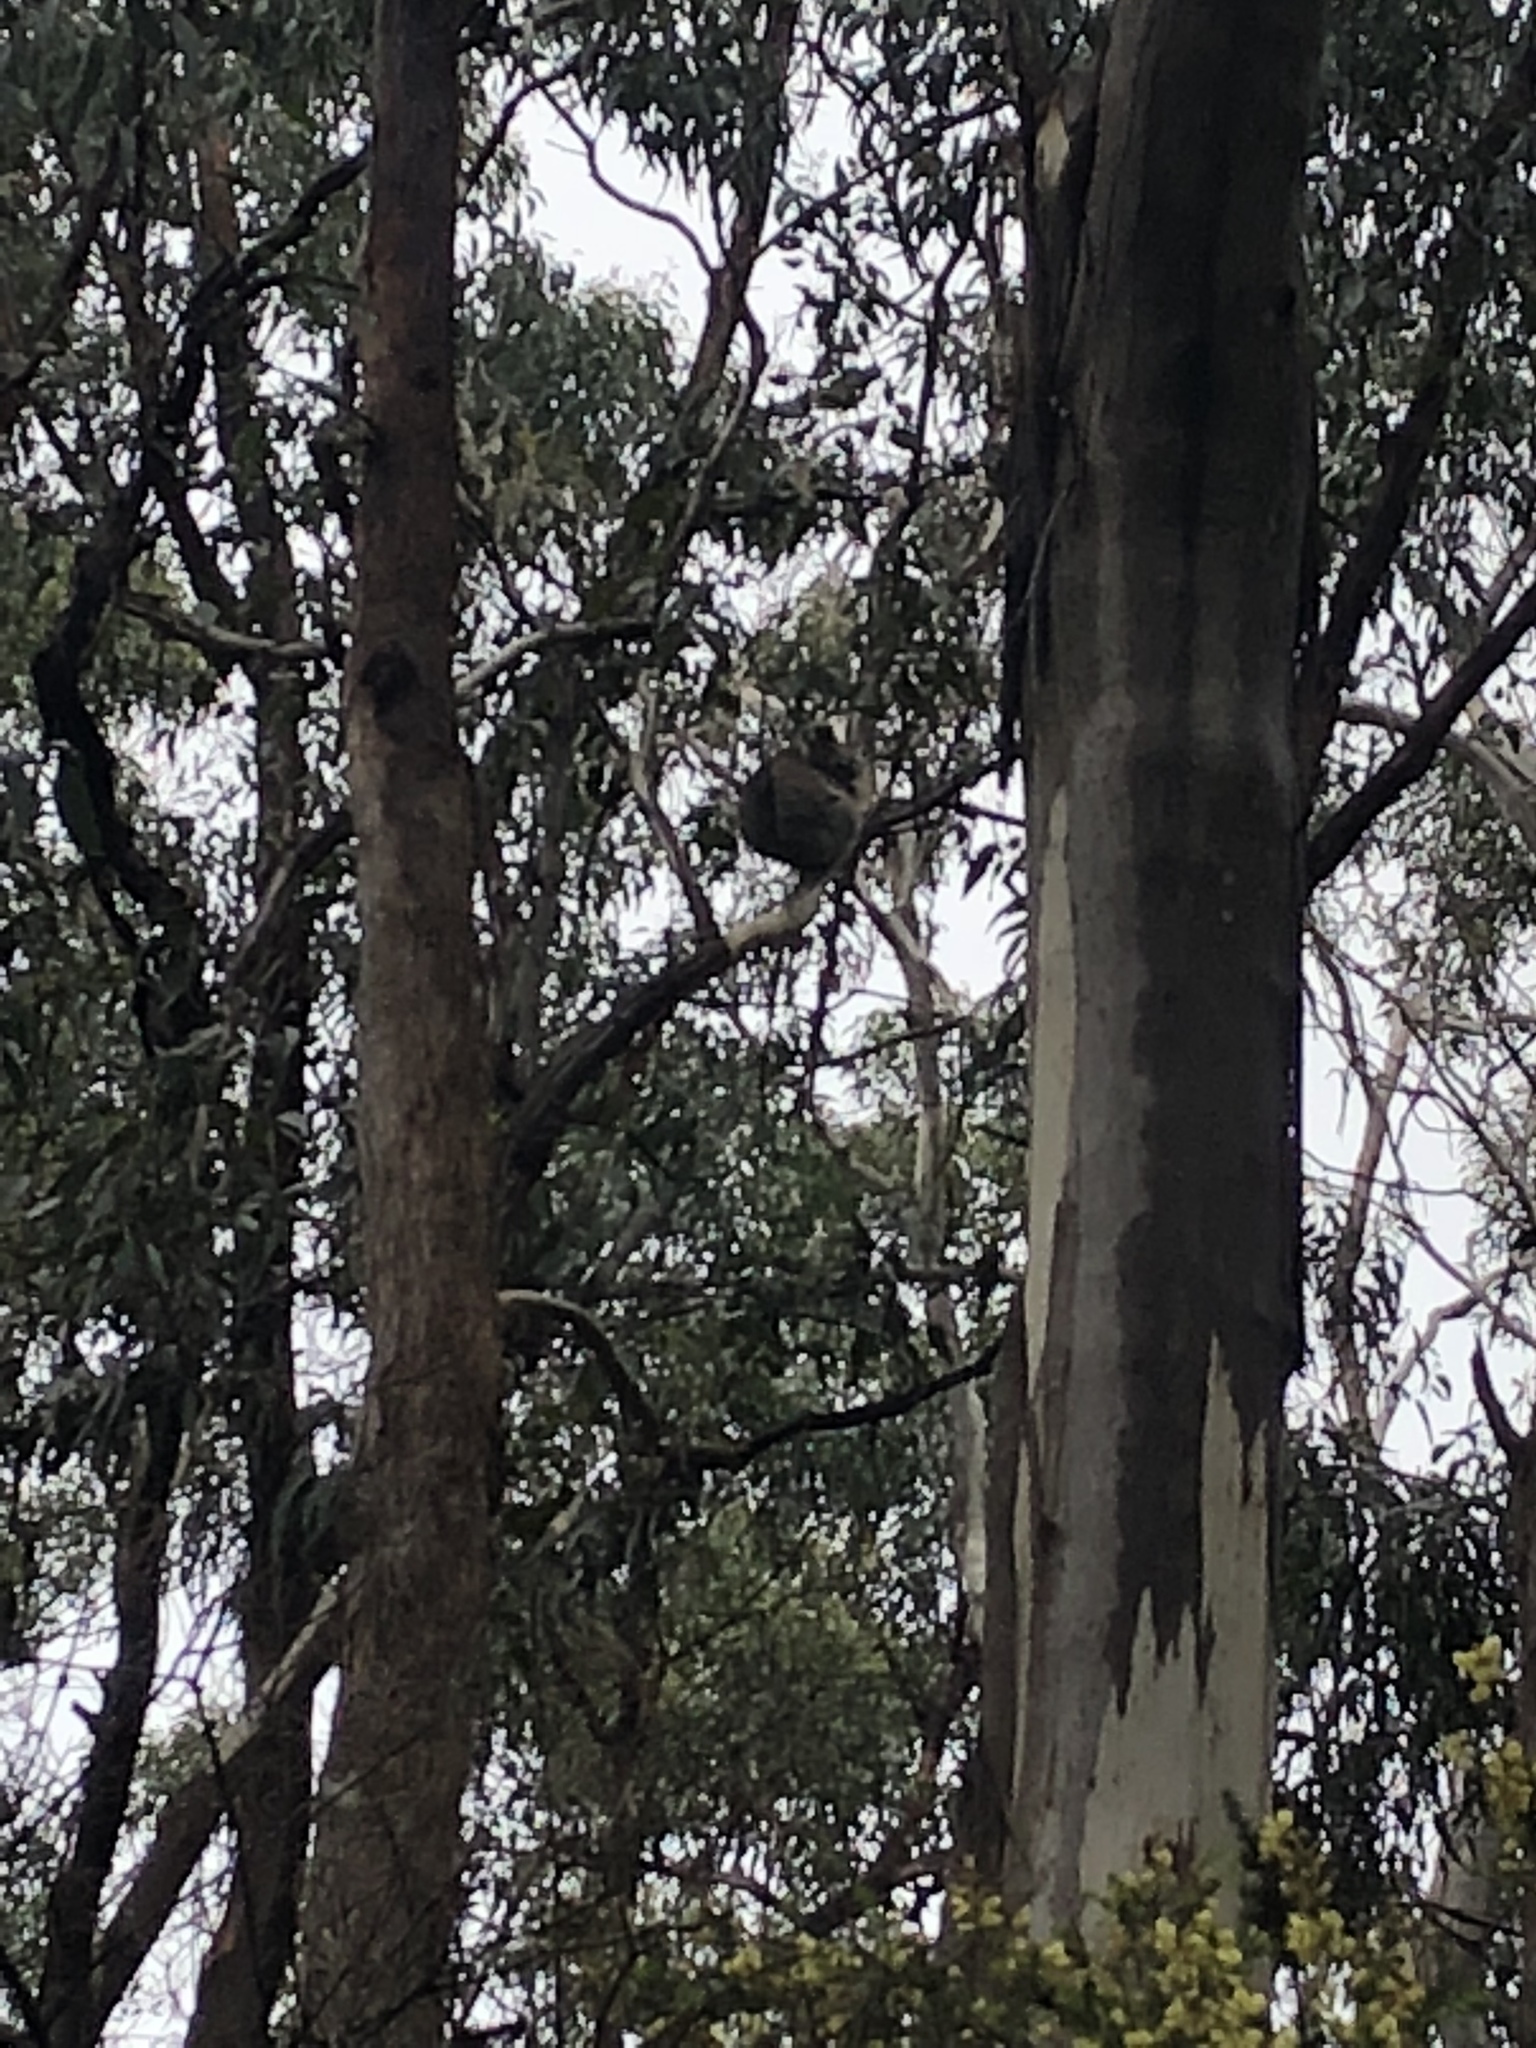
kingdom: Animalia
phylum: Chordata
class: Mammalia
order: Diprotodontia
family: Phascolarctidae
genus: Phascolarctos
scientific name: Phascolarctos cinereus
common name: Koala
